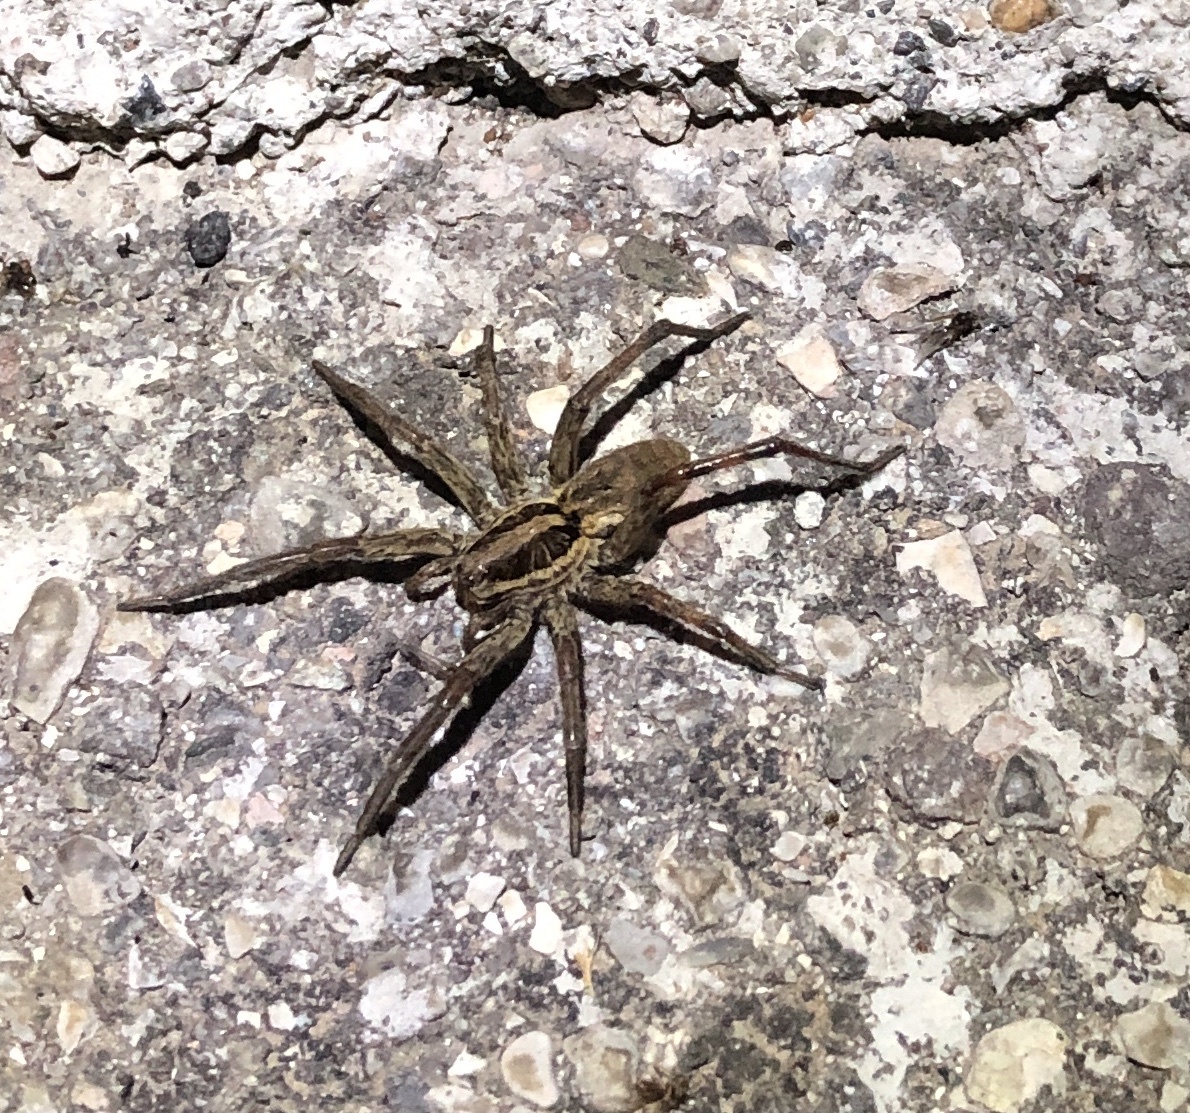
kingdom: Animalia
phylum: Arthropoda
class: Arachnida
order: Araneae
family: Lycosidae
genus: Hogna
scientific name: Hogna radiata
